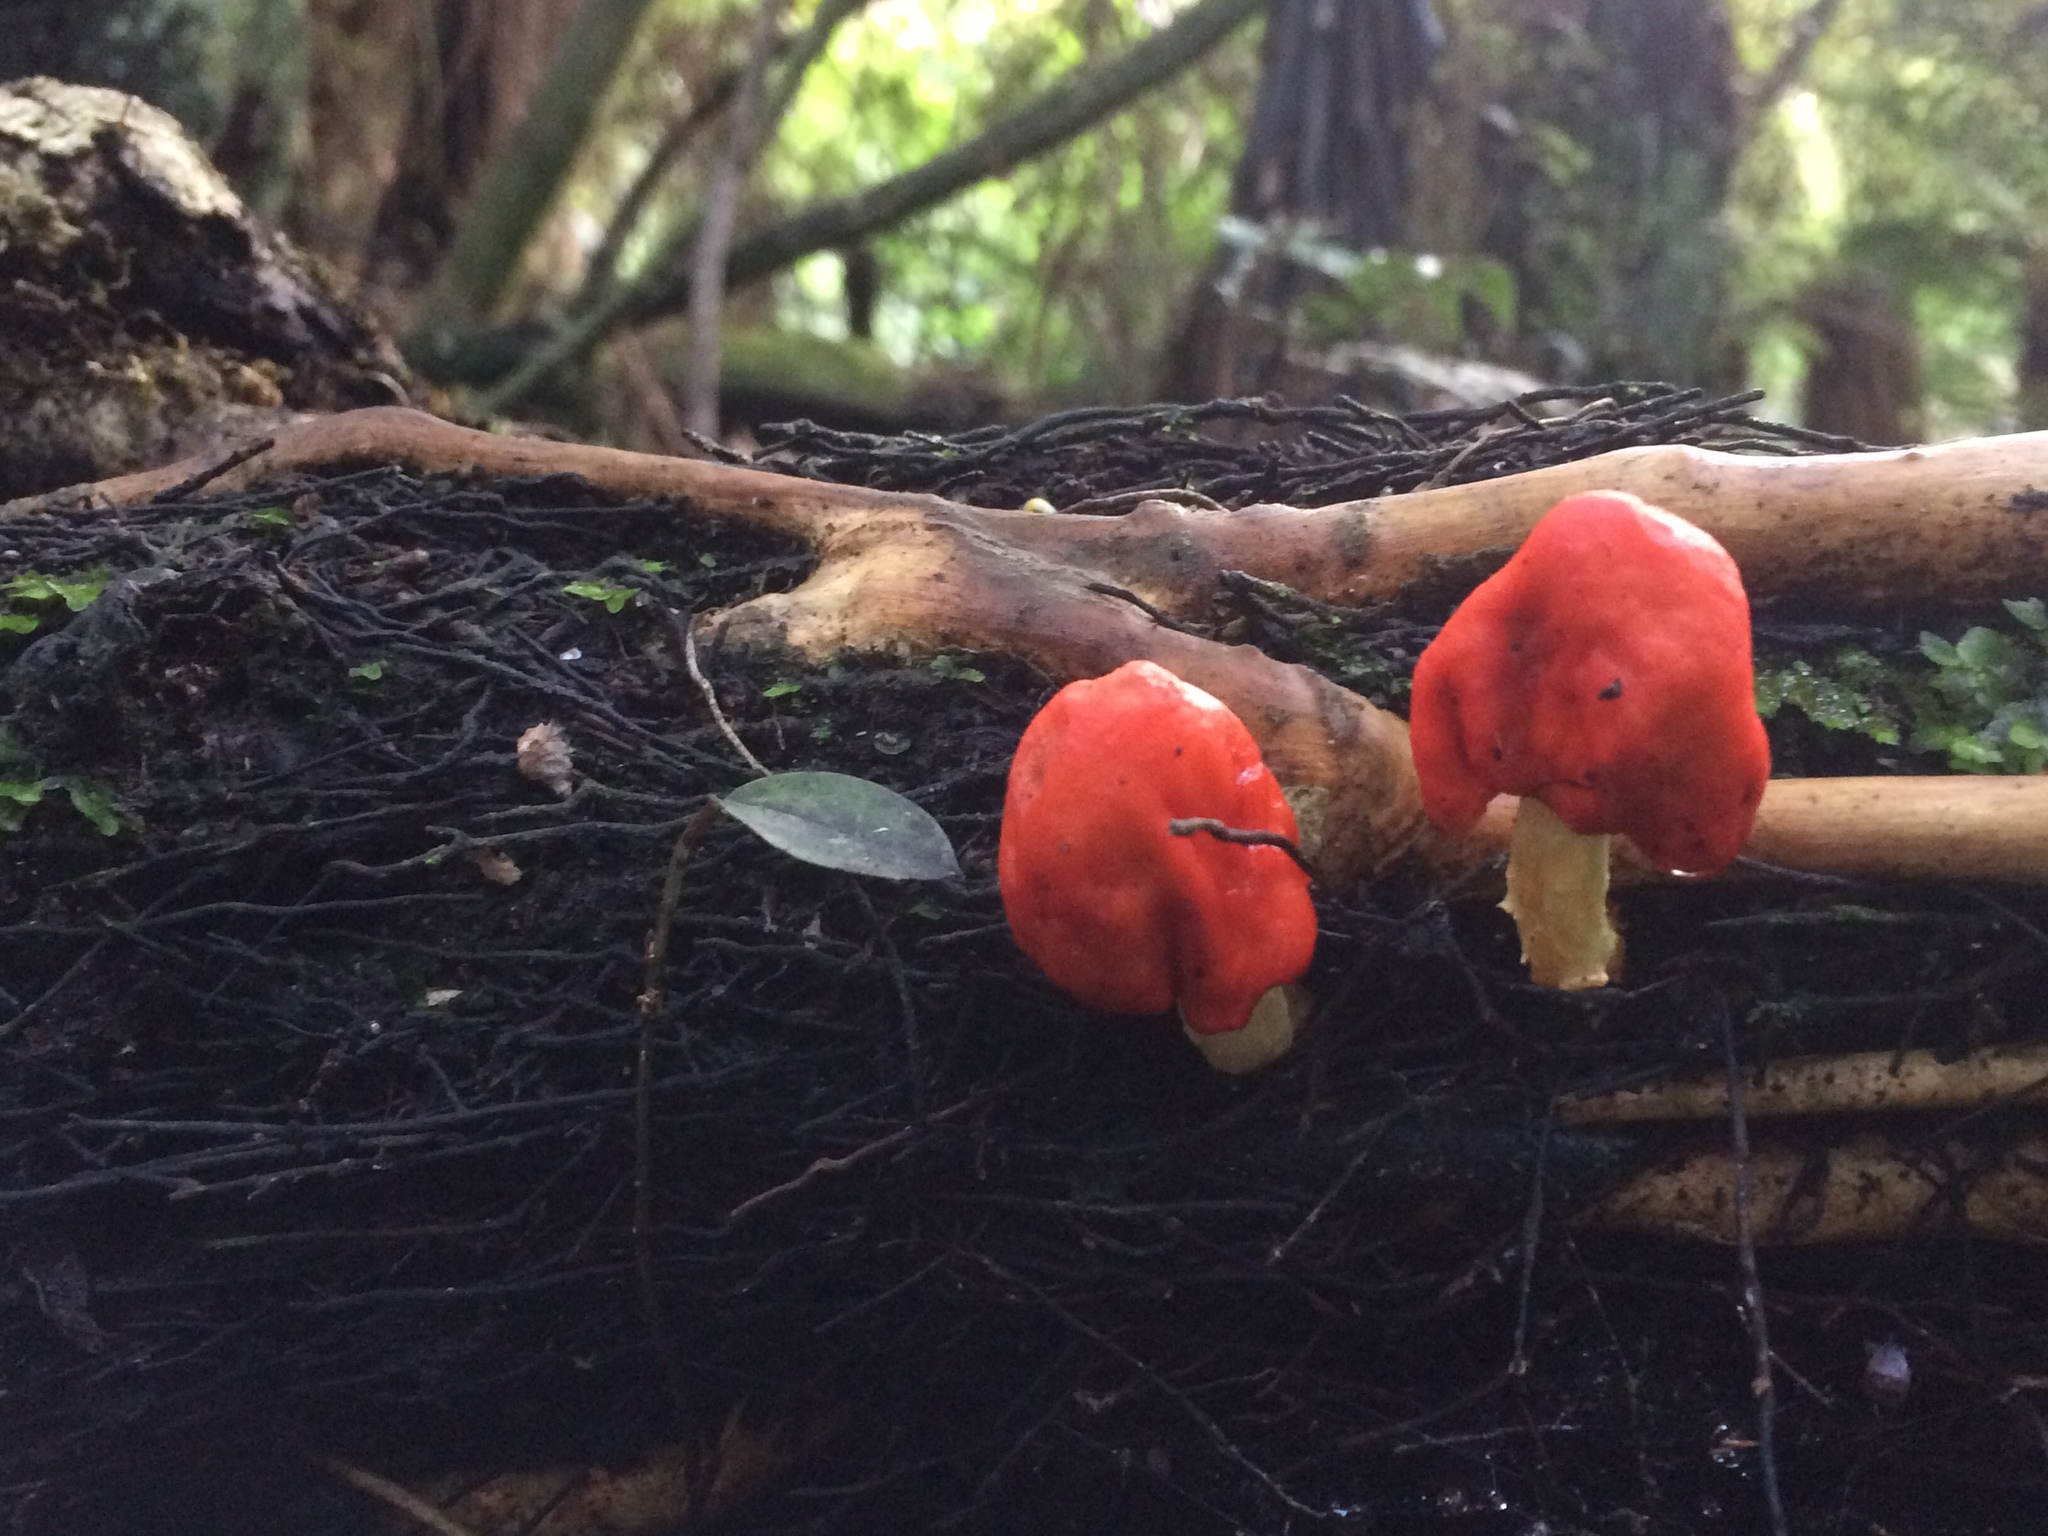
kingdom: Fungi
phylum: Basidiomycota
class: Agaricomycetes
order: Agaricales
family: Strophariaceae
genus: Leratiomyces
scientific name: Leratiomyces erythrocephalus
